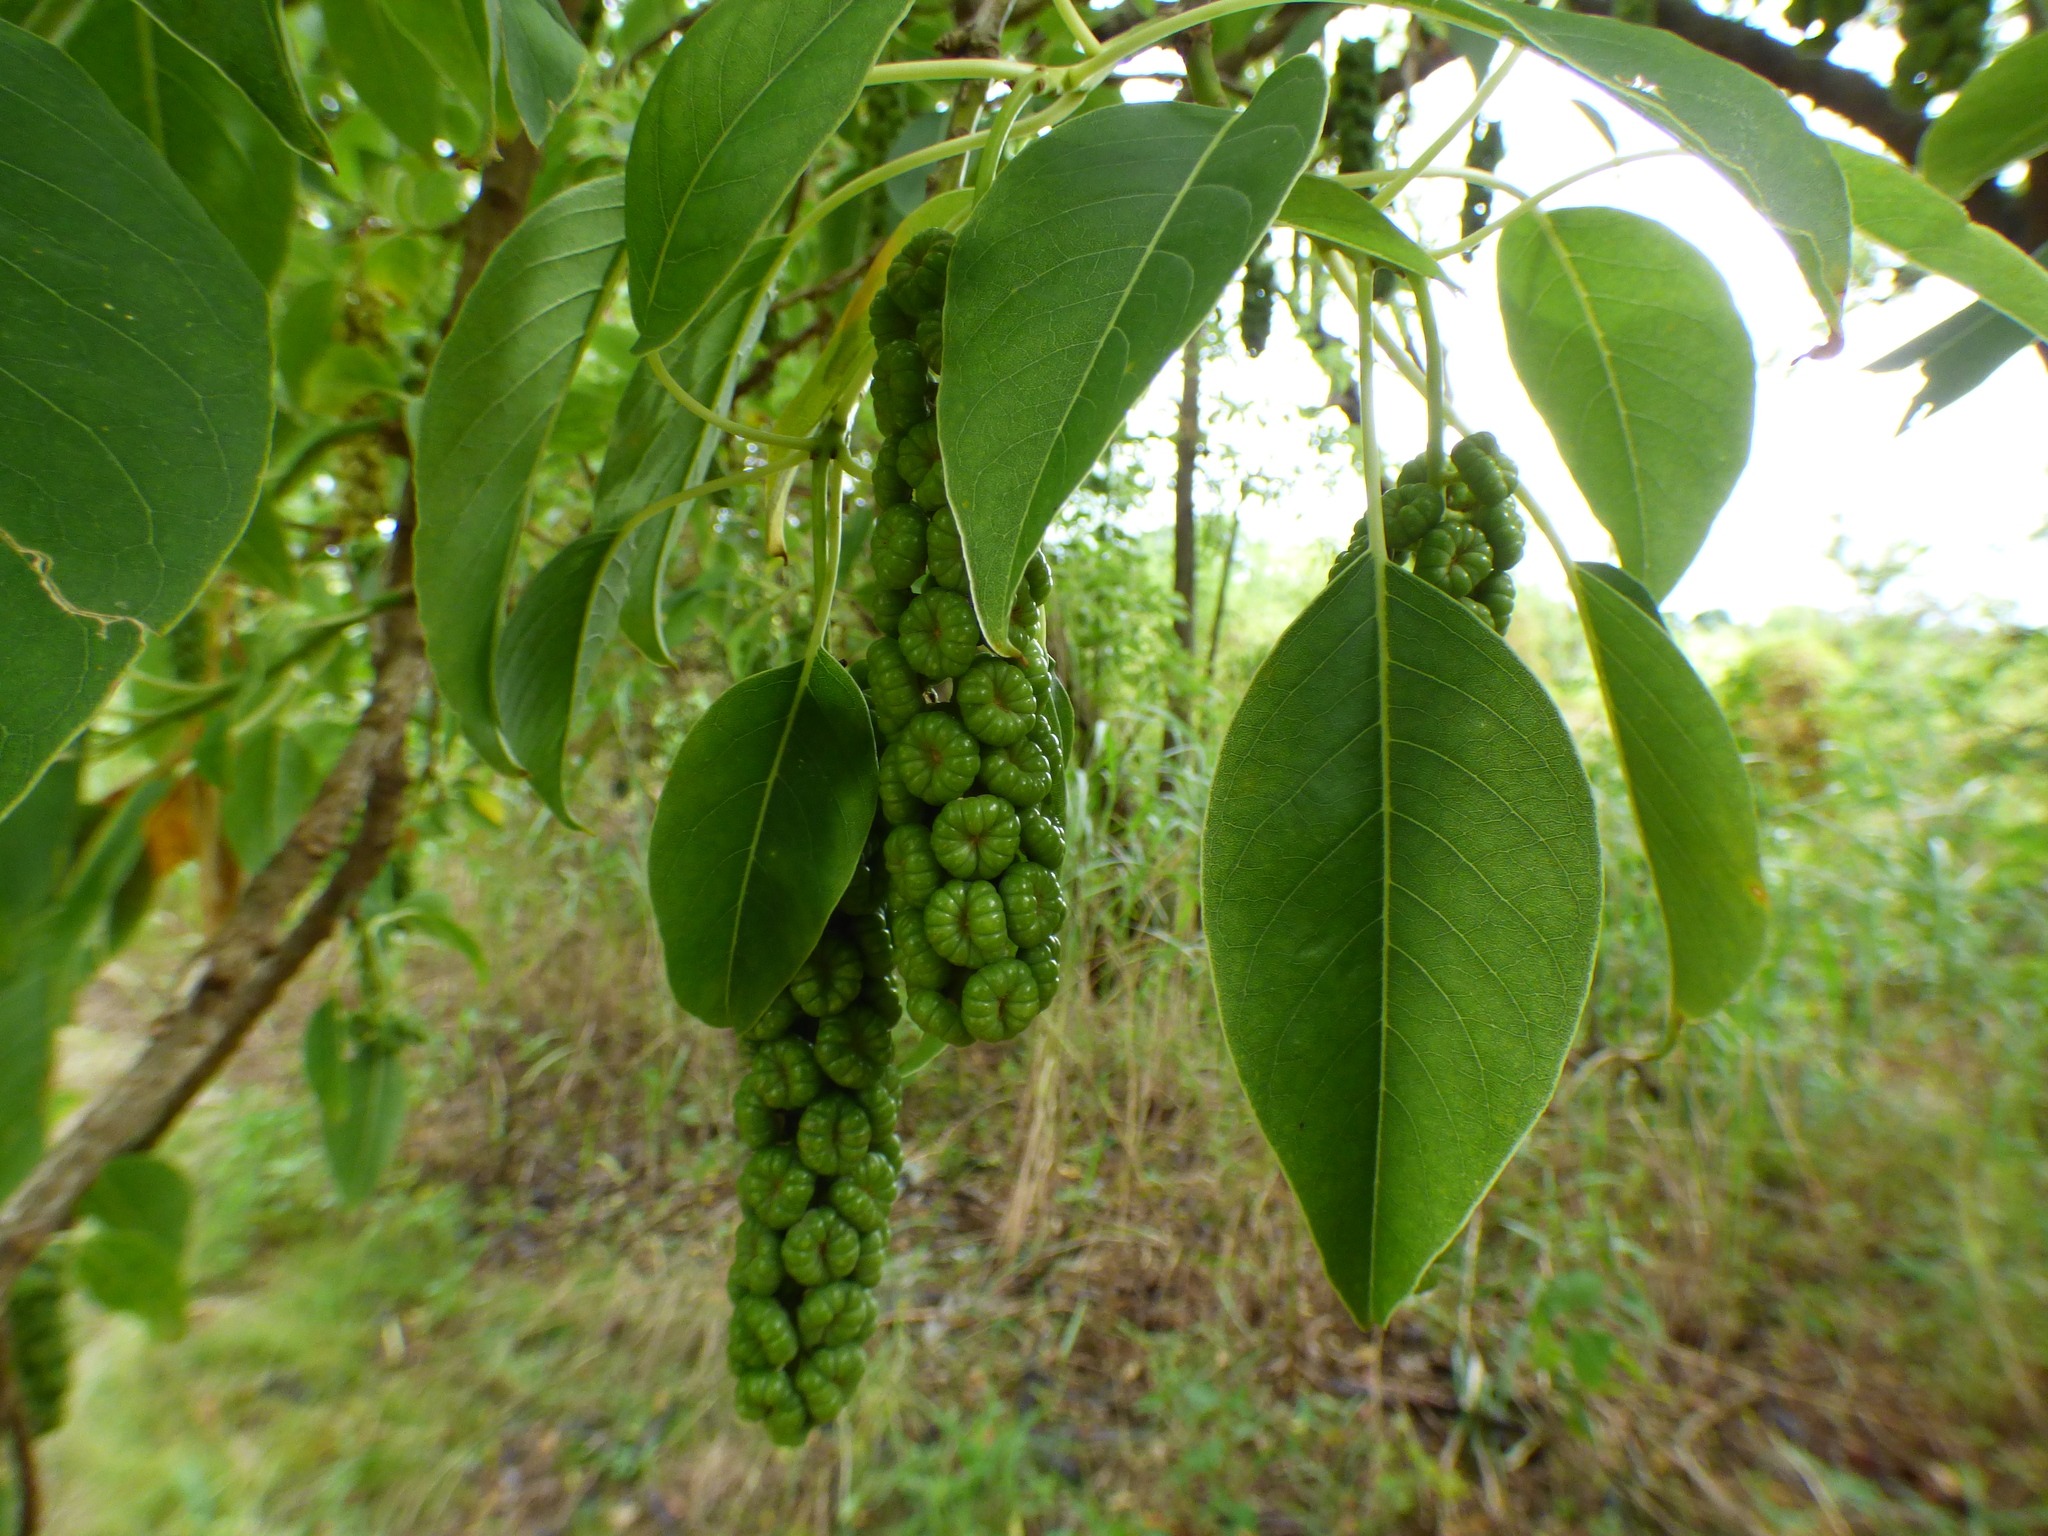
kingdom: Plantae
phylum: Tracheophyta
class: Magnoliopsida
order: Caryophyllales
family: Phytolaccaceae
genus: Phytolacca
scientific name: Phytolacca dioica
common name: Pokeweed
